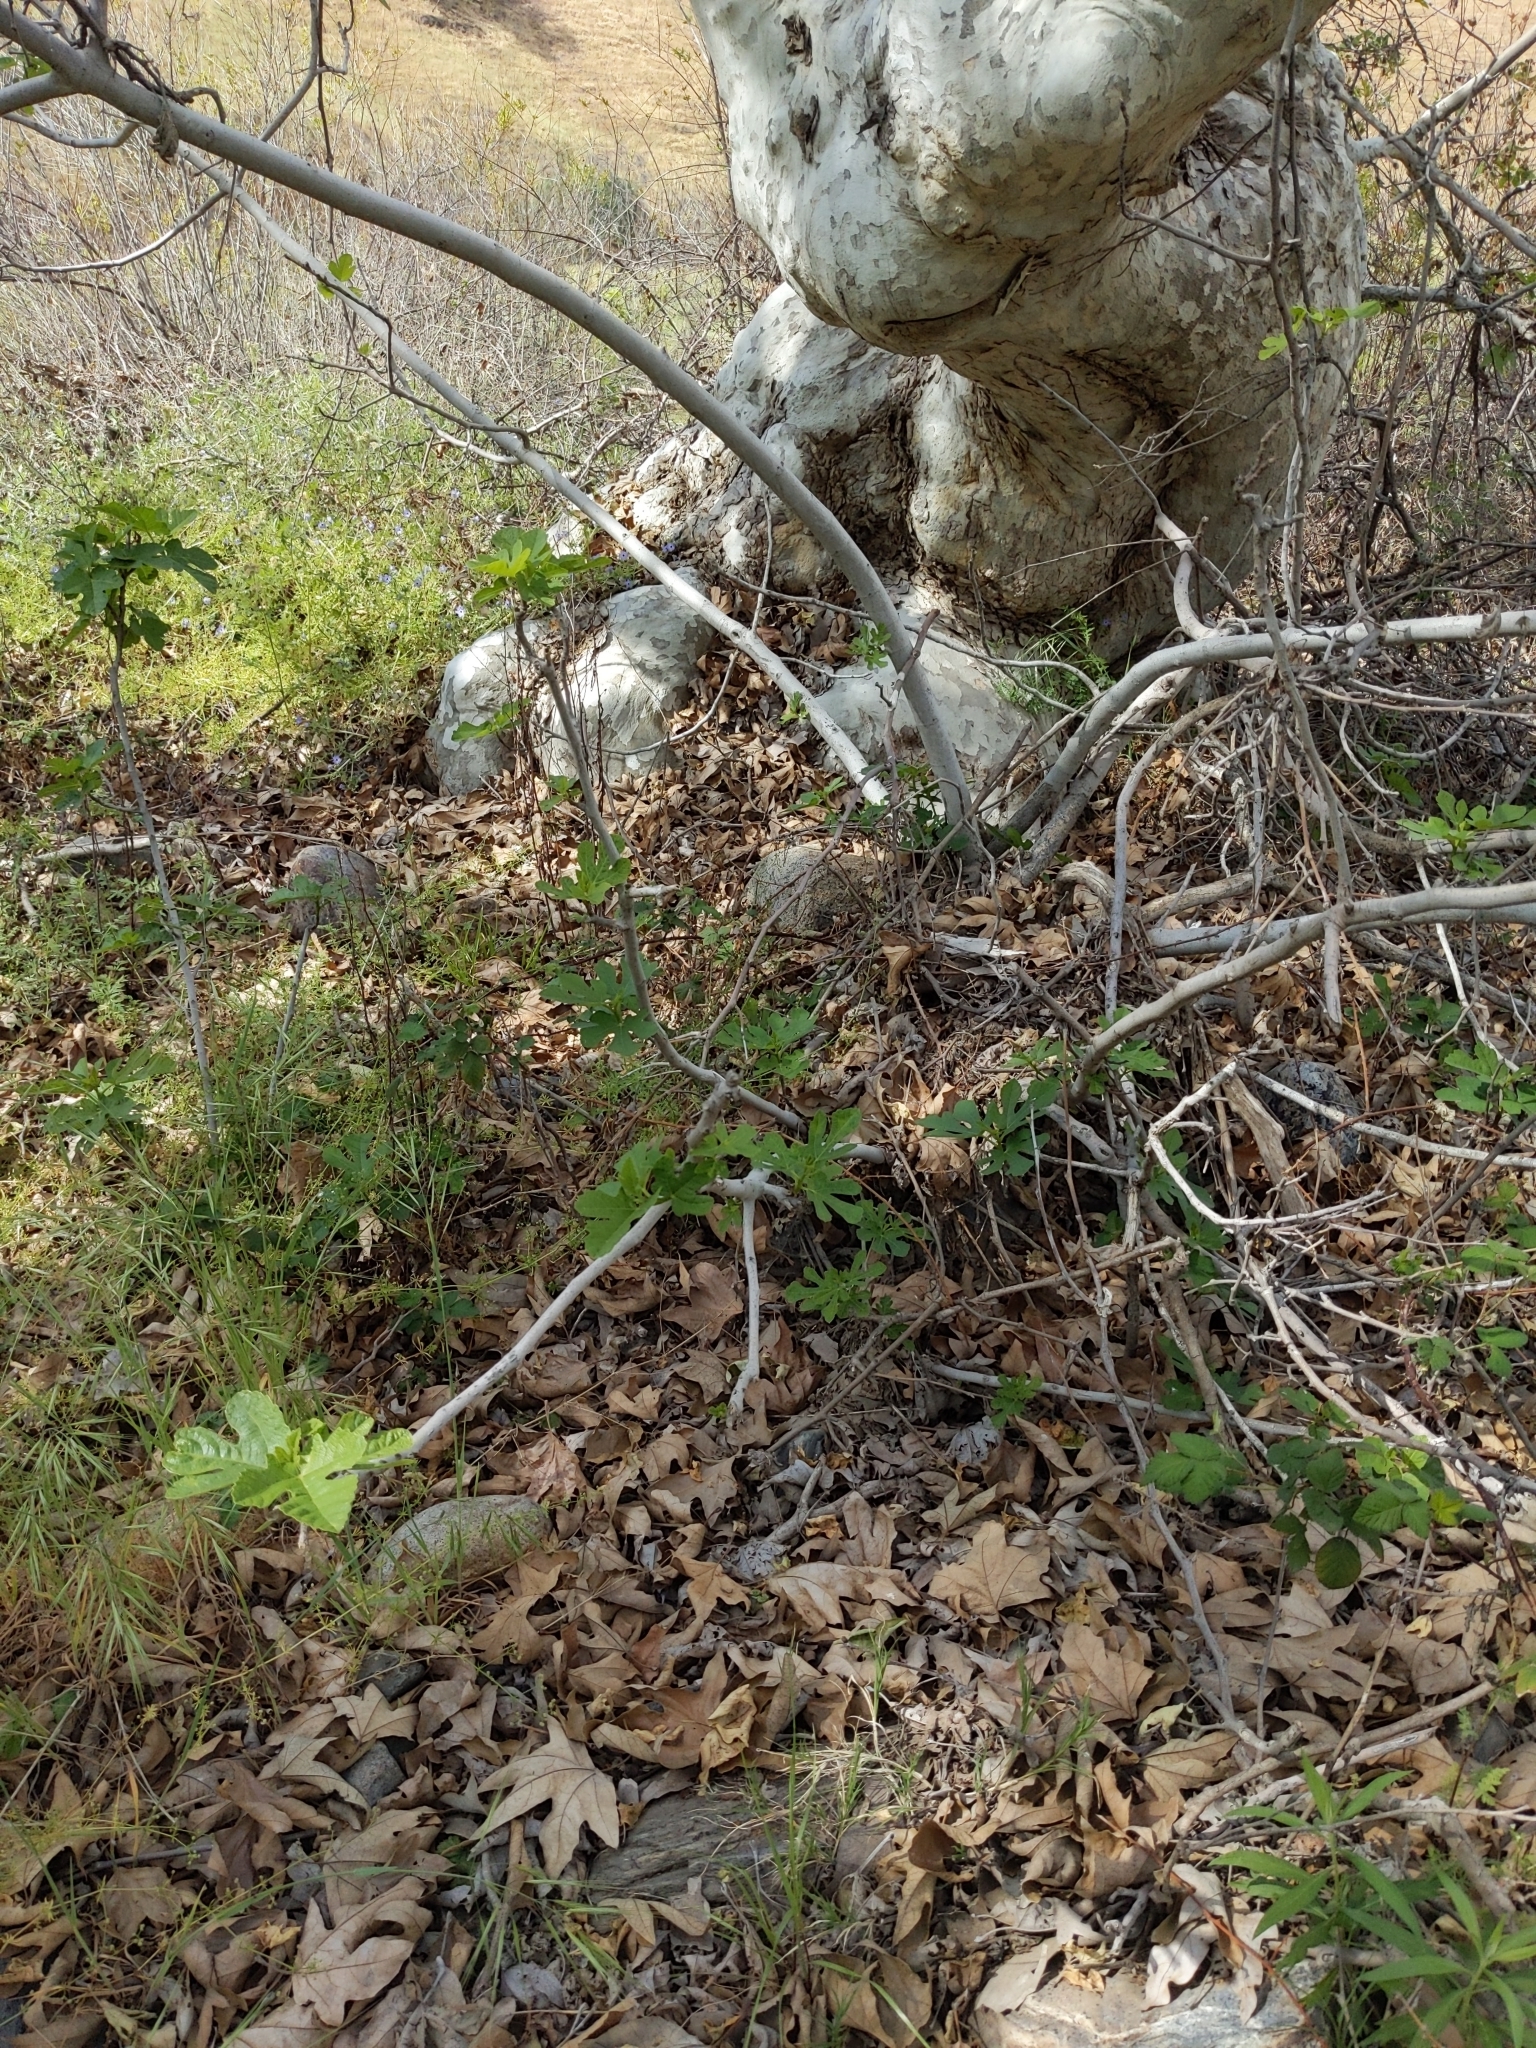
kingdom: Plantae
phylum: Tracheophyta
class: Magnoliopsida
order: Rosales
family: Moraceae
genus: Ficus
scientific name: Ficus carica
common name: Fig
